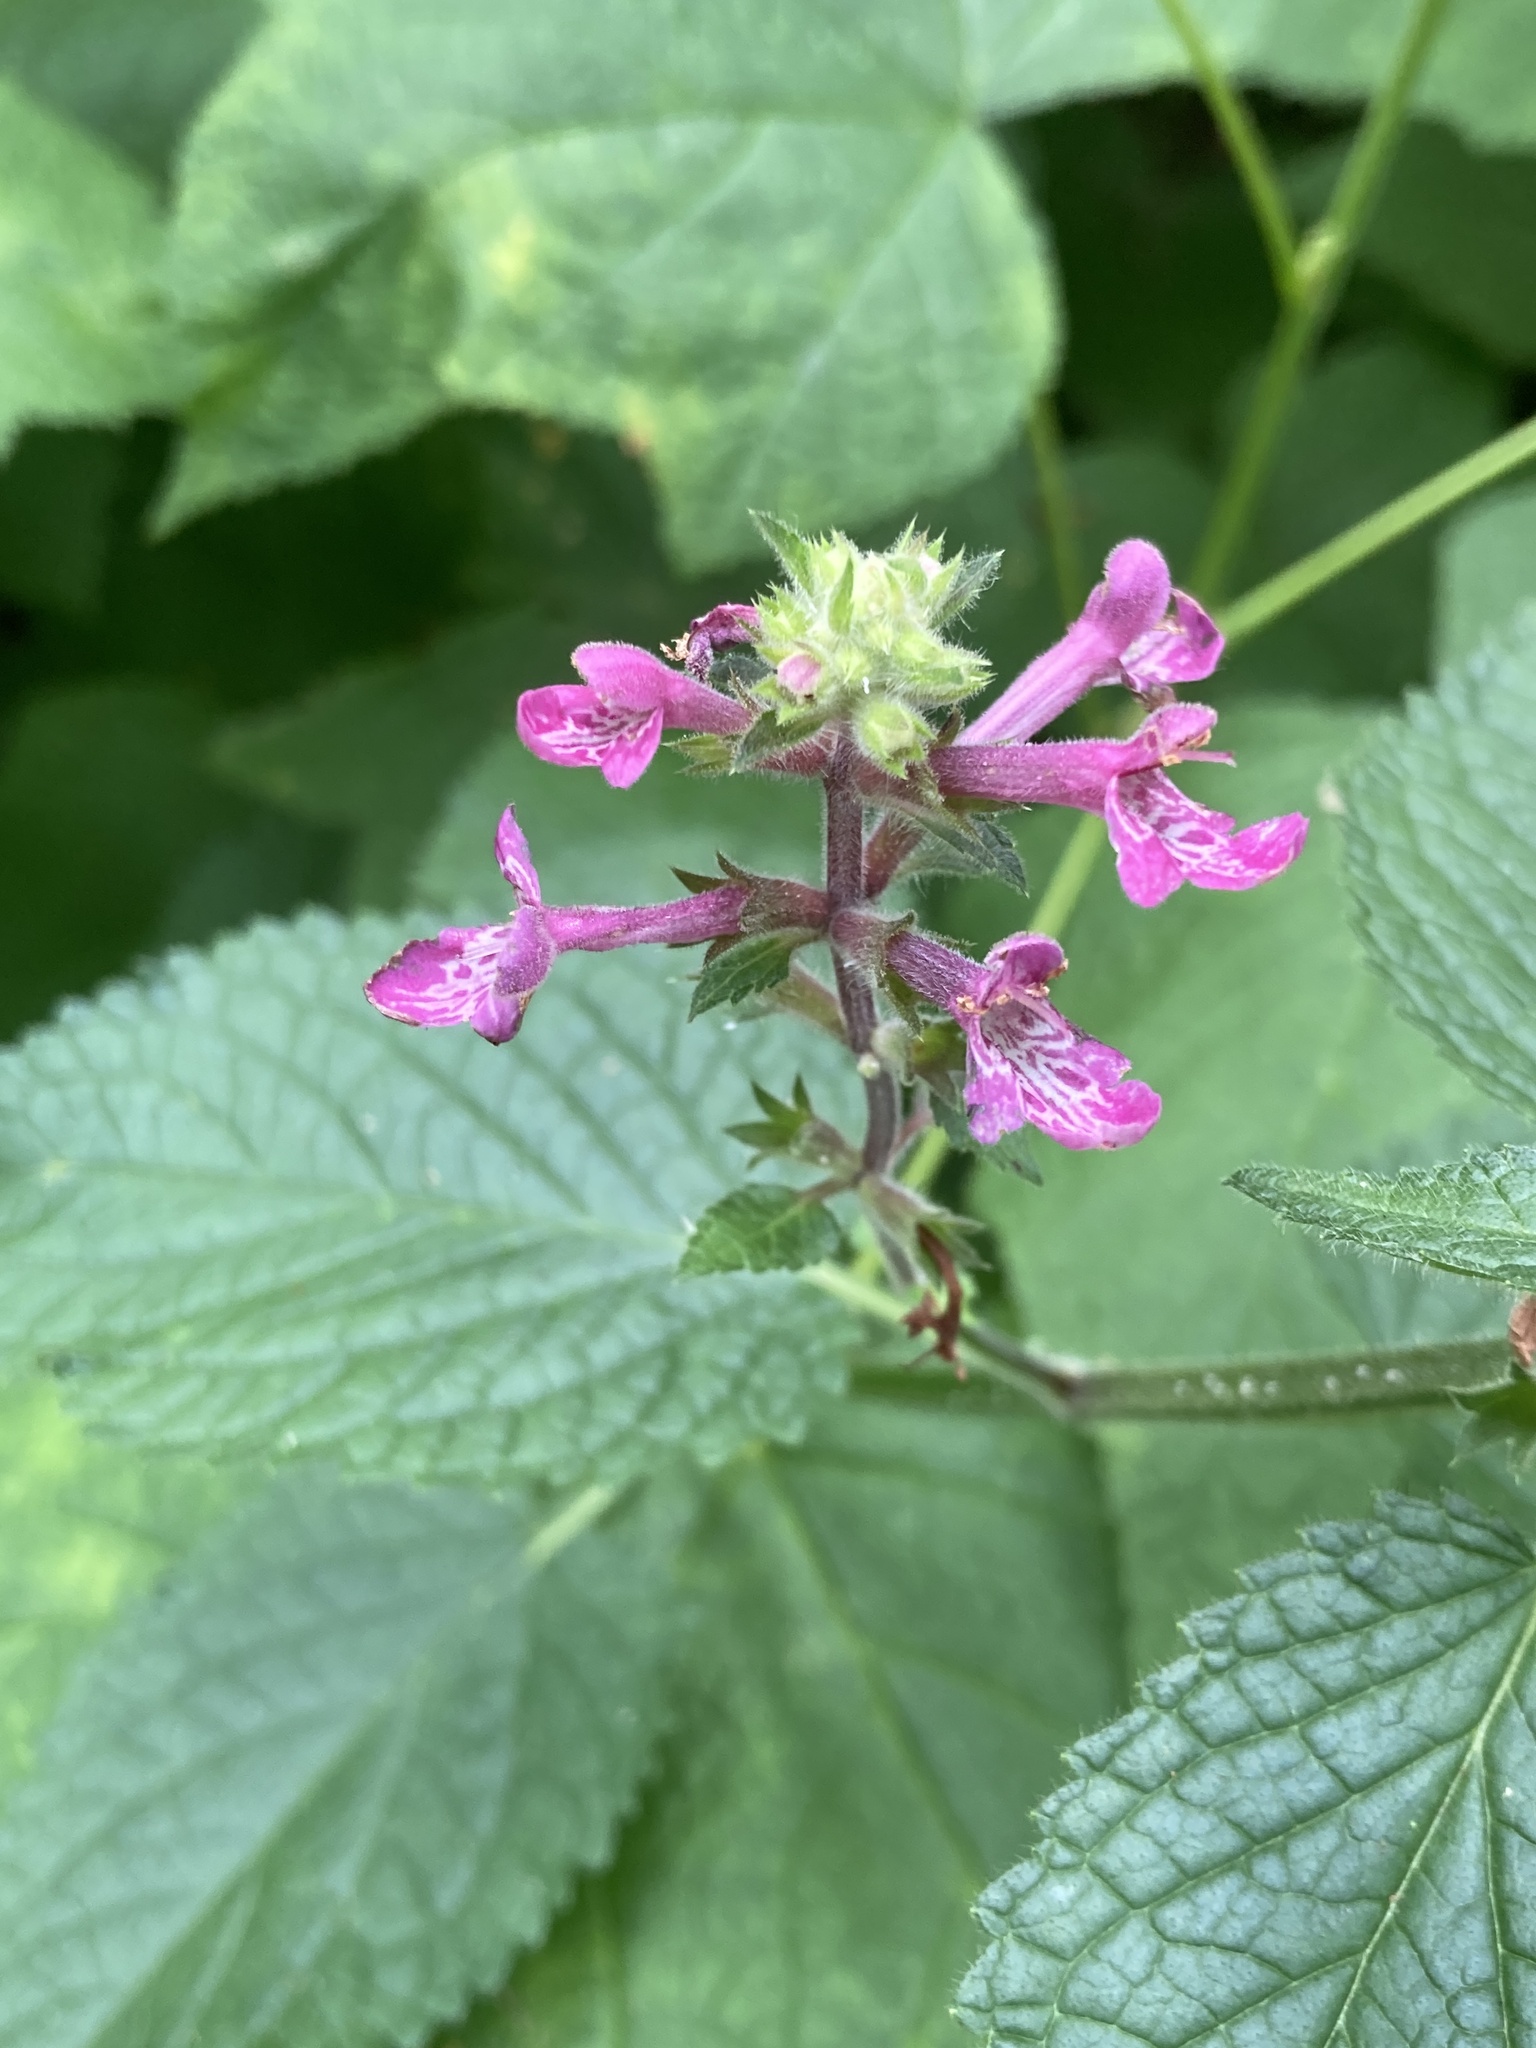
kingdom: Plantae
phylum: Tracheophyta
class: Magnoliopsida
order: Lamiales
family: Lamiaceae
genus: Stachys
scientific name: Stachys chamissonis
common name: Coastal hedge-nettle
